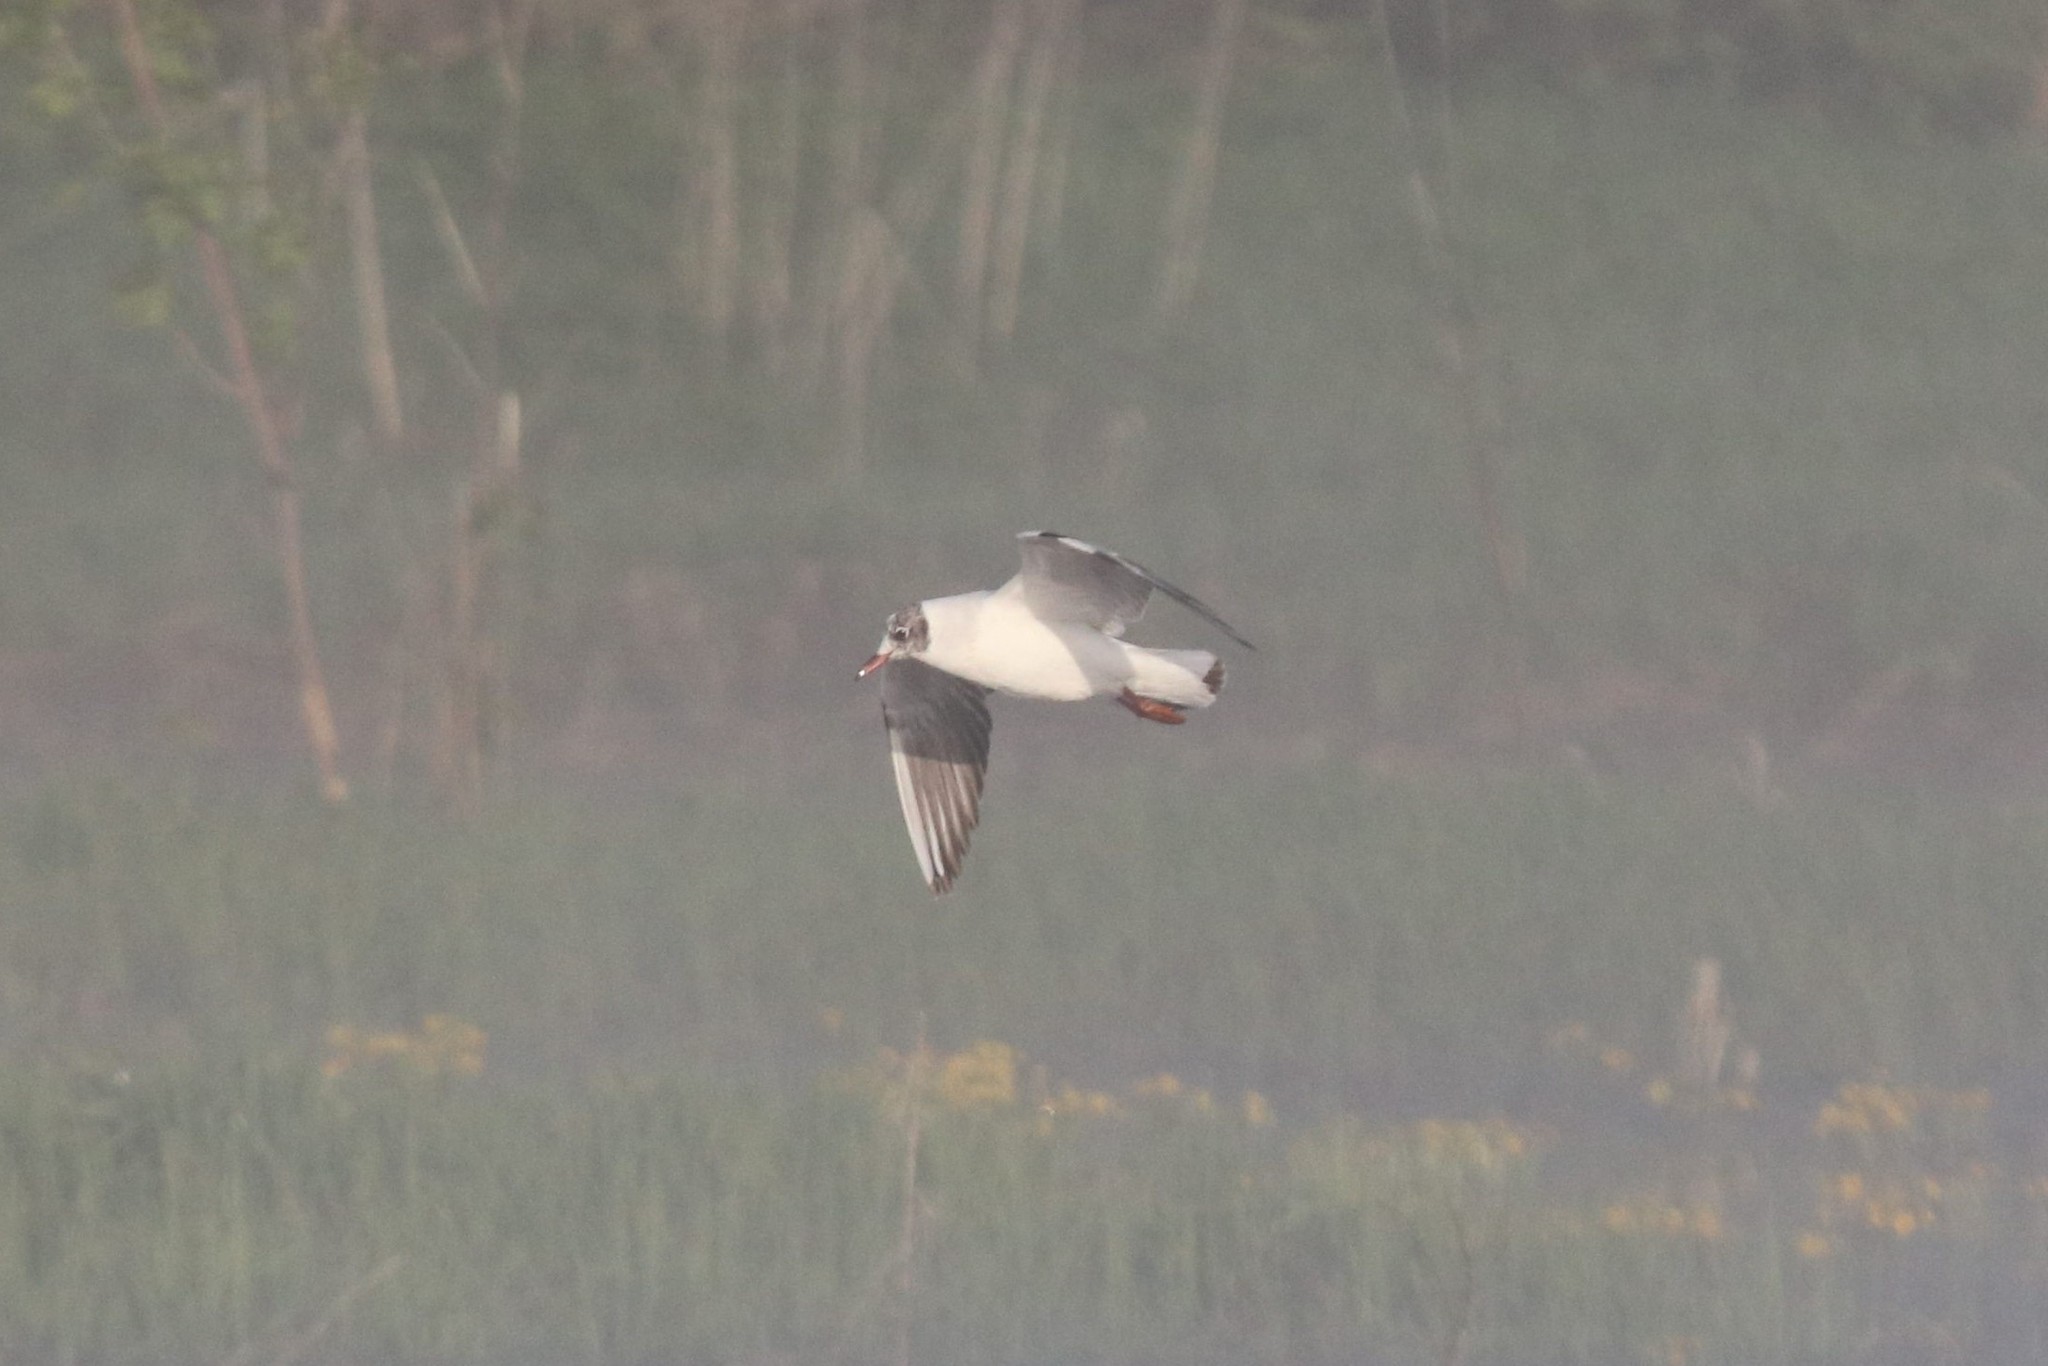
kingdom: Animalia
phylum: Chordata
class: Aves
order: Charadriiformes
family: Laridae
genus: Chroicocephalus
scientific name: Chroicocephalus ridibundus
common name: Black-headed gull
